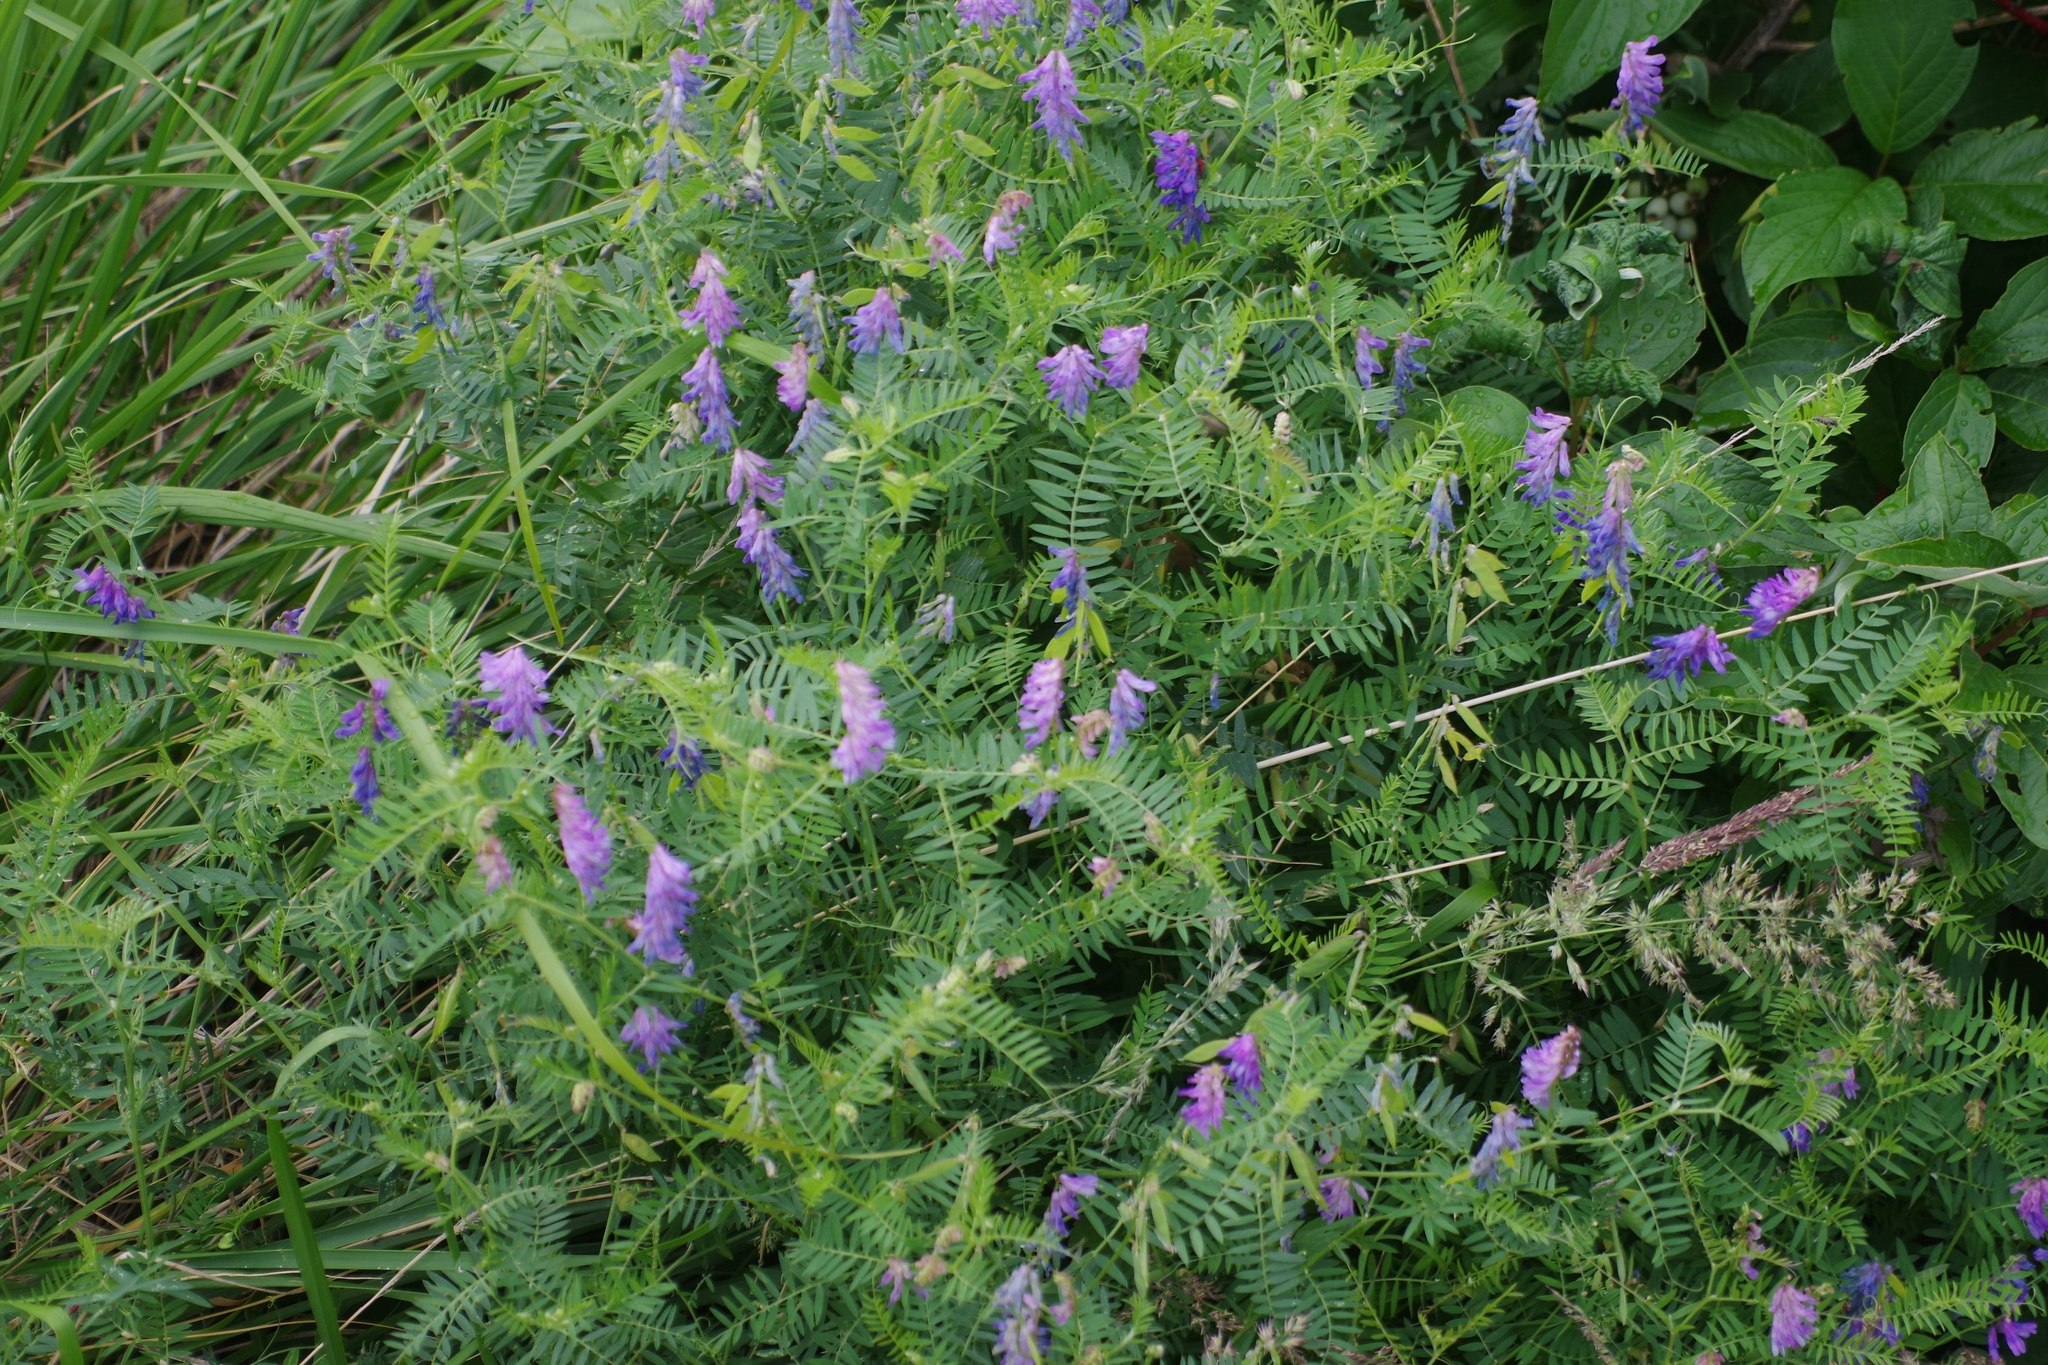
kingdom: Plantae
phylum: Tracheophyta
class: Magnoliopsida
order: Fabales
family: Fabaceae
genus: Vicia
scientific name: Vicia cracca
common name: Bird vetch
